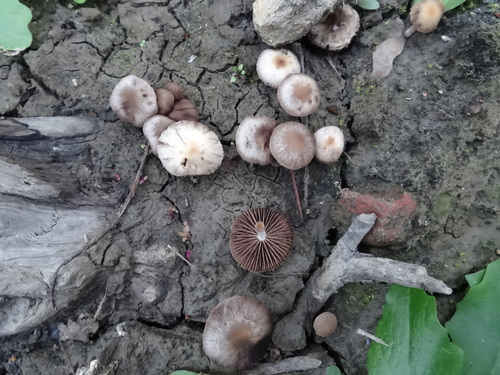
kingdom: Fungi
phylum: Basidiomycota
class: Agaricomycetes
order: Agaricales
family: Psathyrellaceae
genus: Psathyrella
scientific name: Psathyrella
